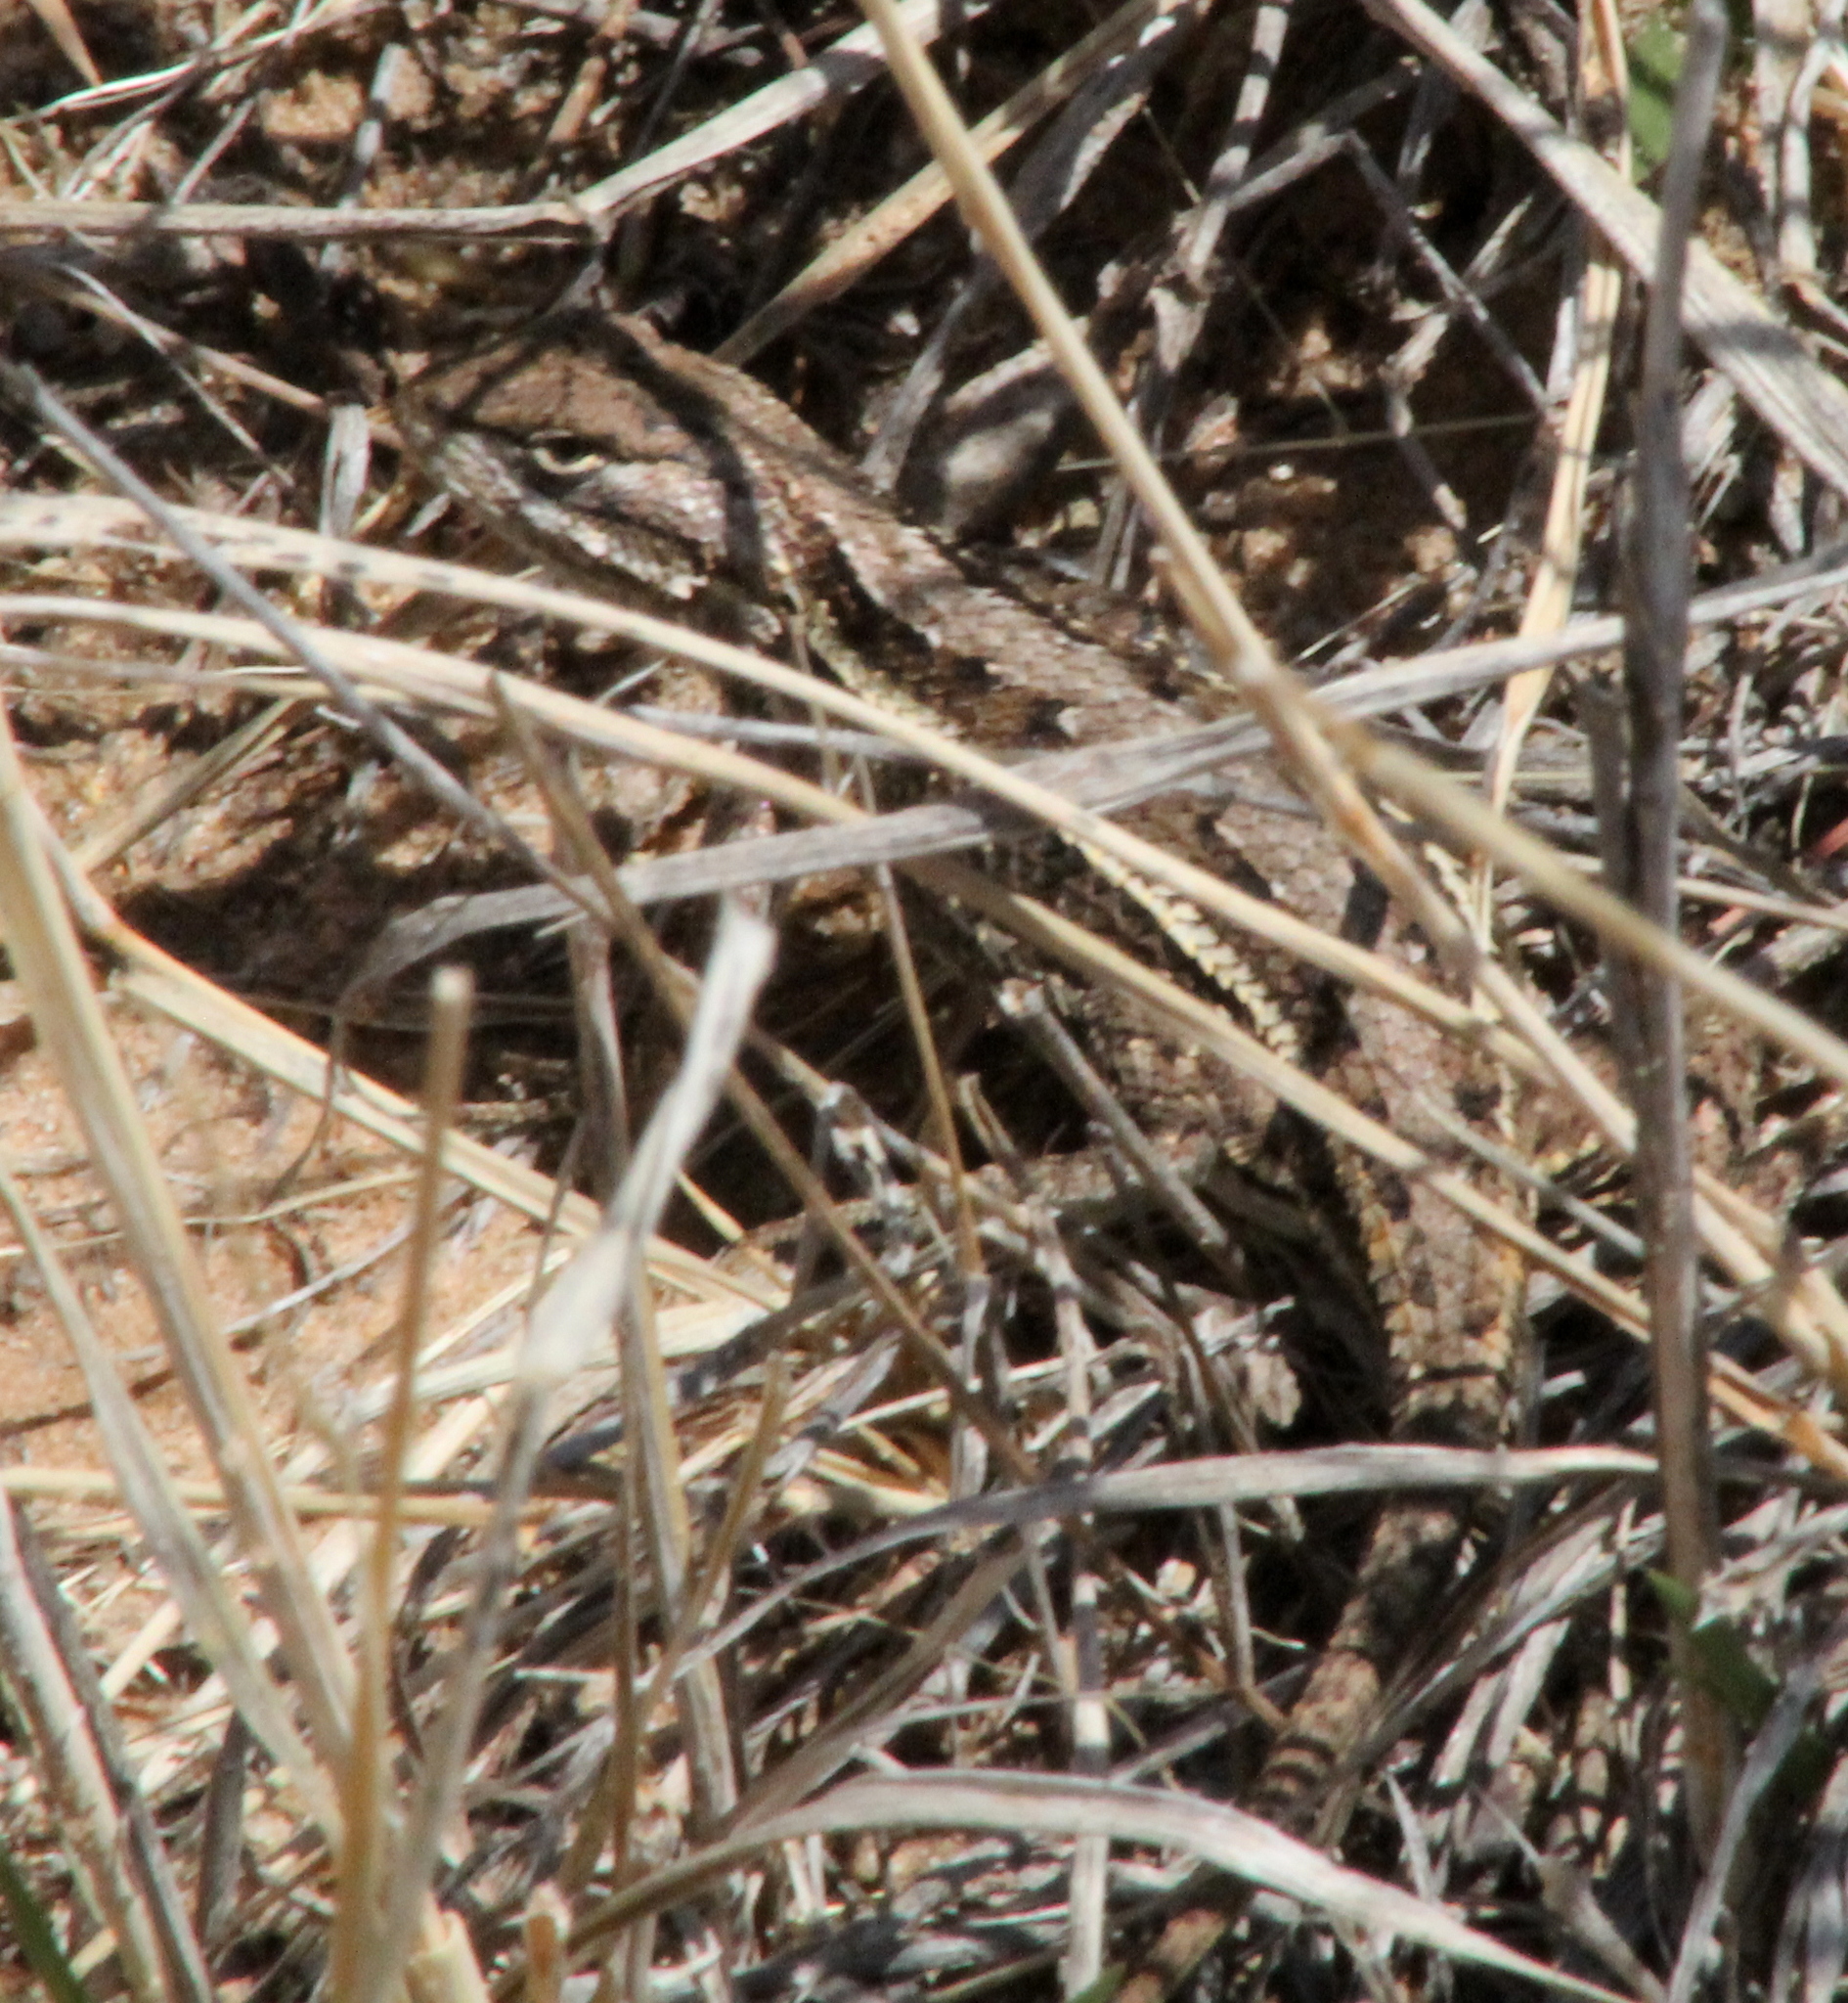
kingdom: Animalia
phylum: Chordata
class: Squamata
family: Phrynosomatidae
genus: Sceloporus
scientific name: Sceloporus consobrinus
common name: Southern prairie lizard
